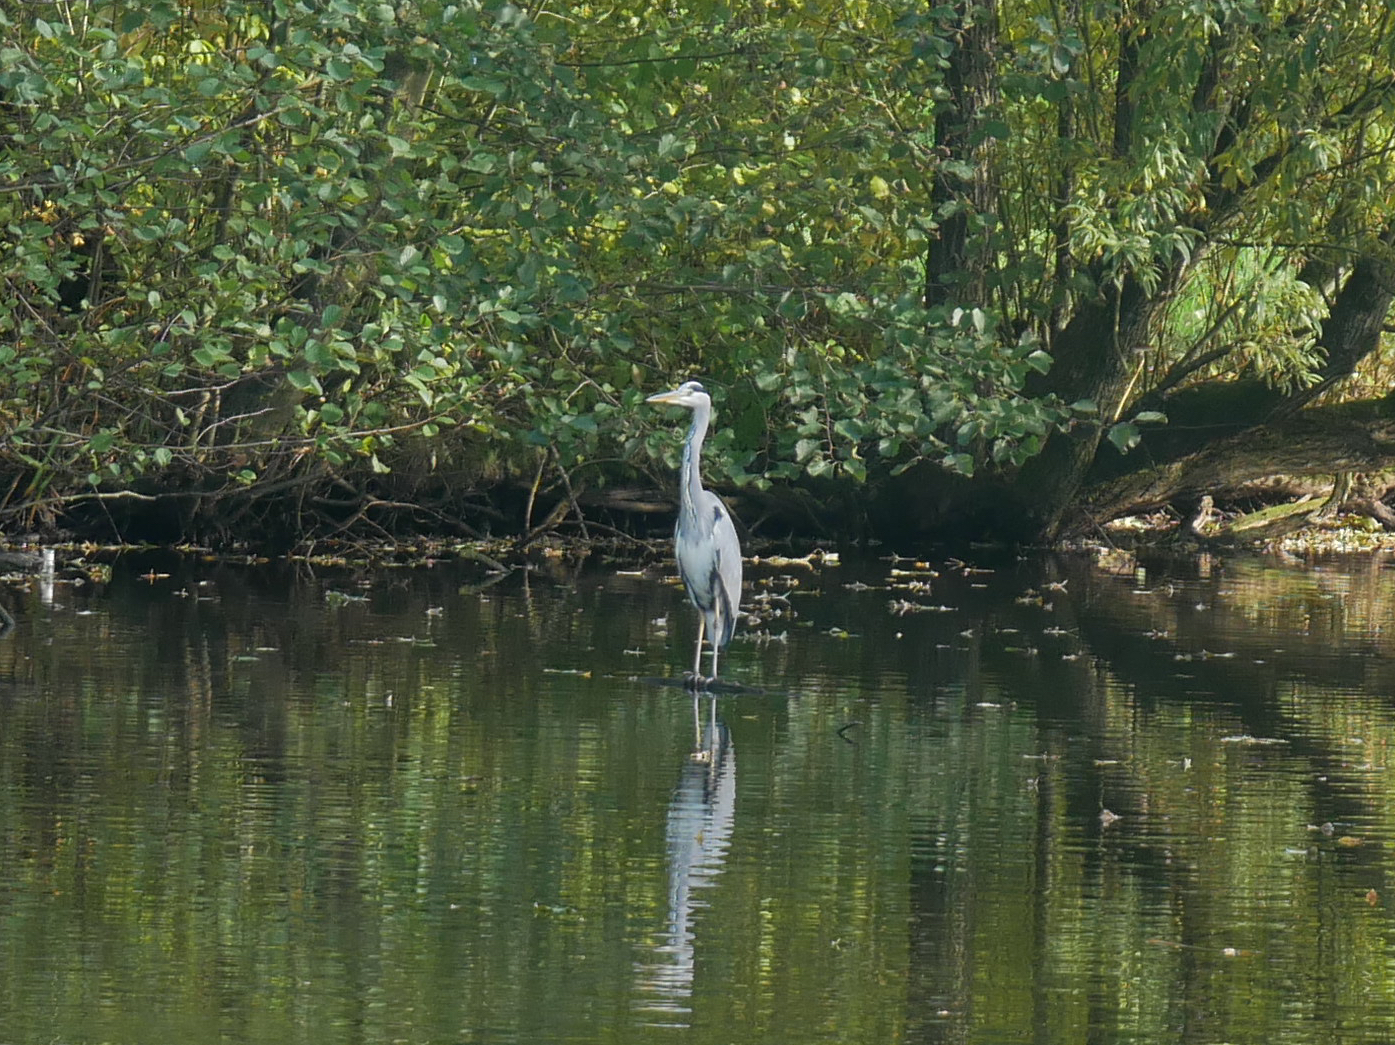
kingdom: Animalia
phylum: Chordata
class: Aves
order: Pelecaniformes
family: Ardeidae
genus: Ardea
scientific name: Ardea cinerea
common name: Grey heron
